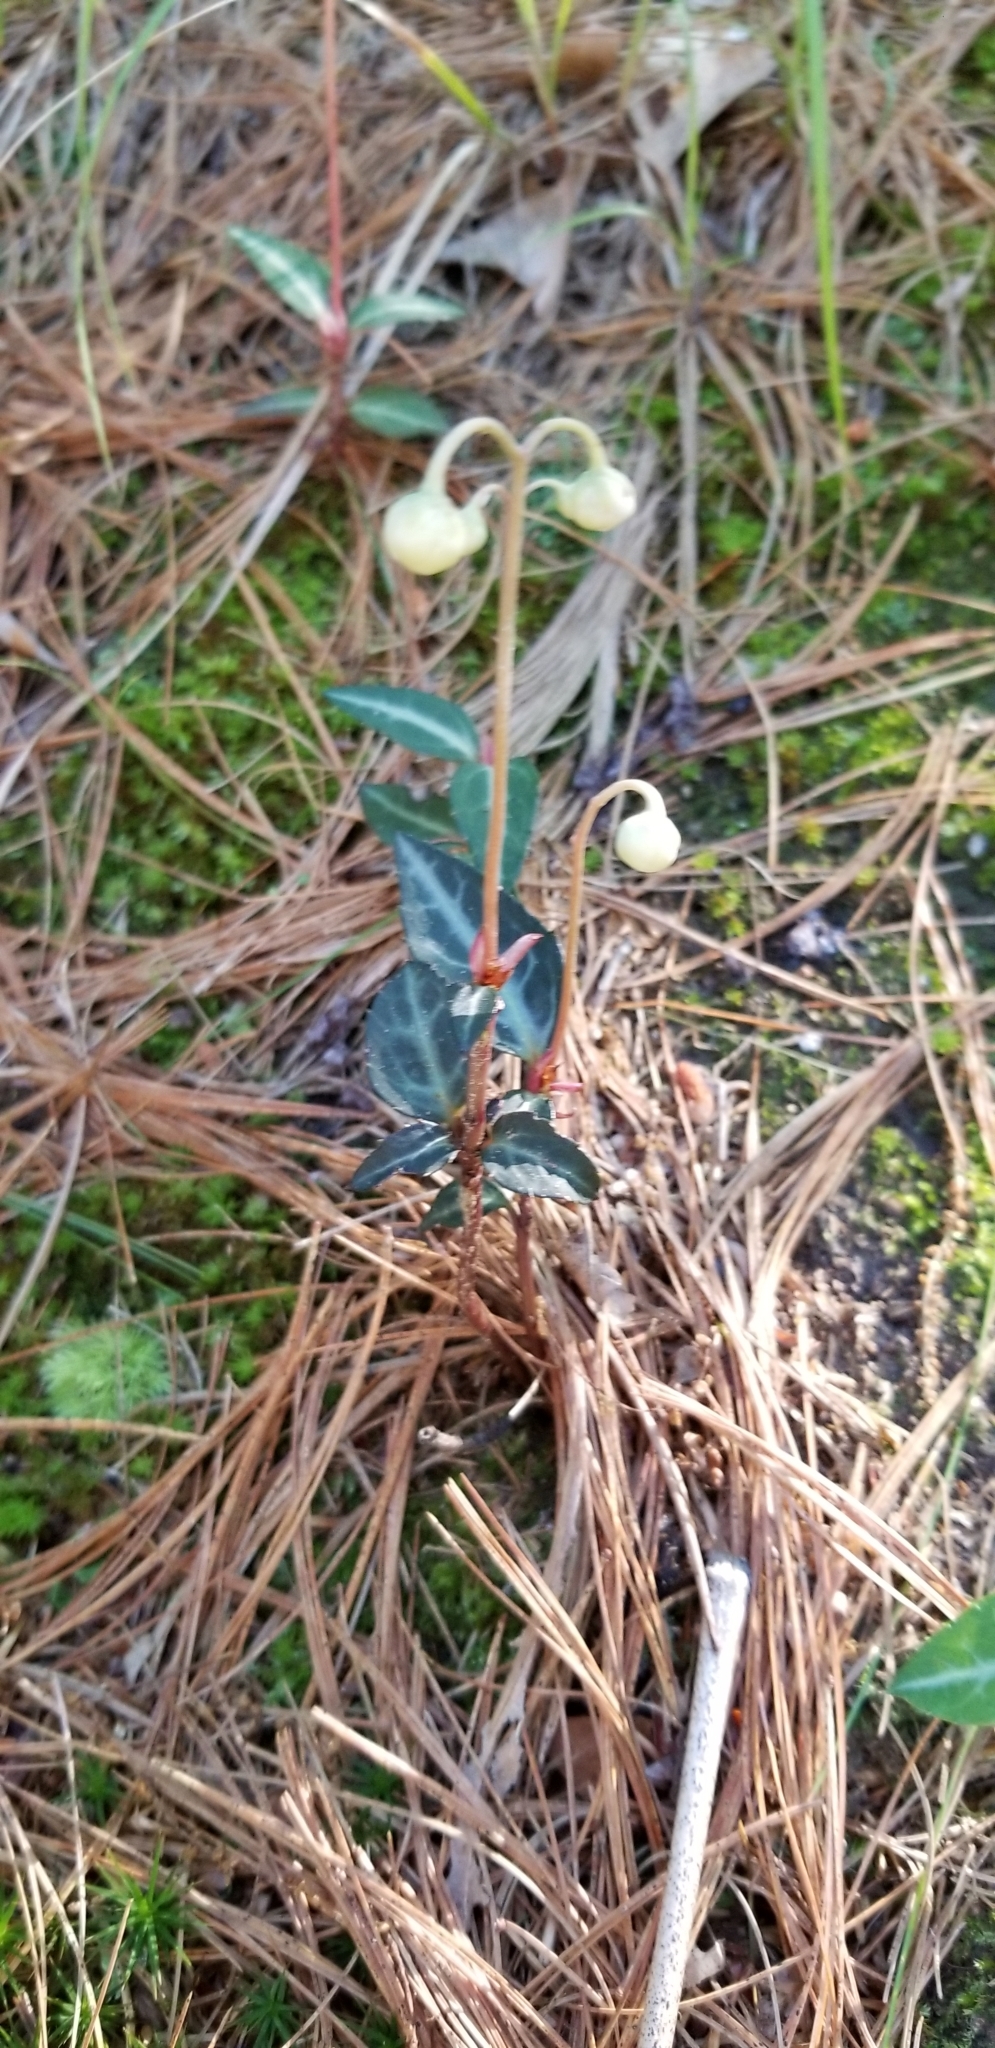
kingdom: Plantae
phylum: Tracheophyta
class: Magnoliopsida
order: Ericales
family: Ericaceae
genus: Chimaphila
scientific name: Chimaphila maculata
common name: Spotted pipsissewa
